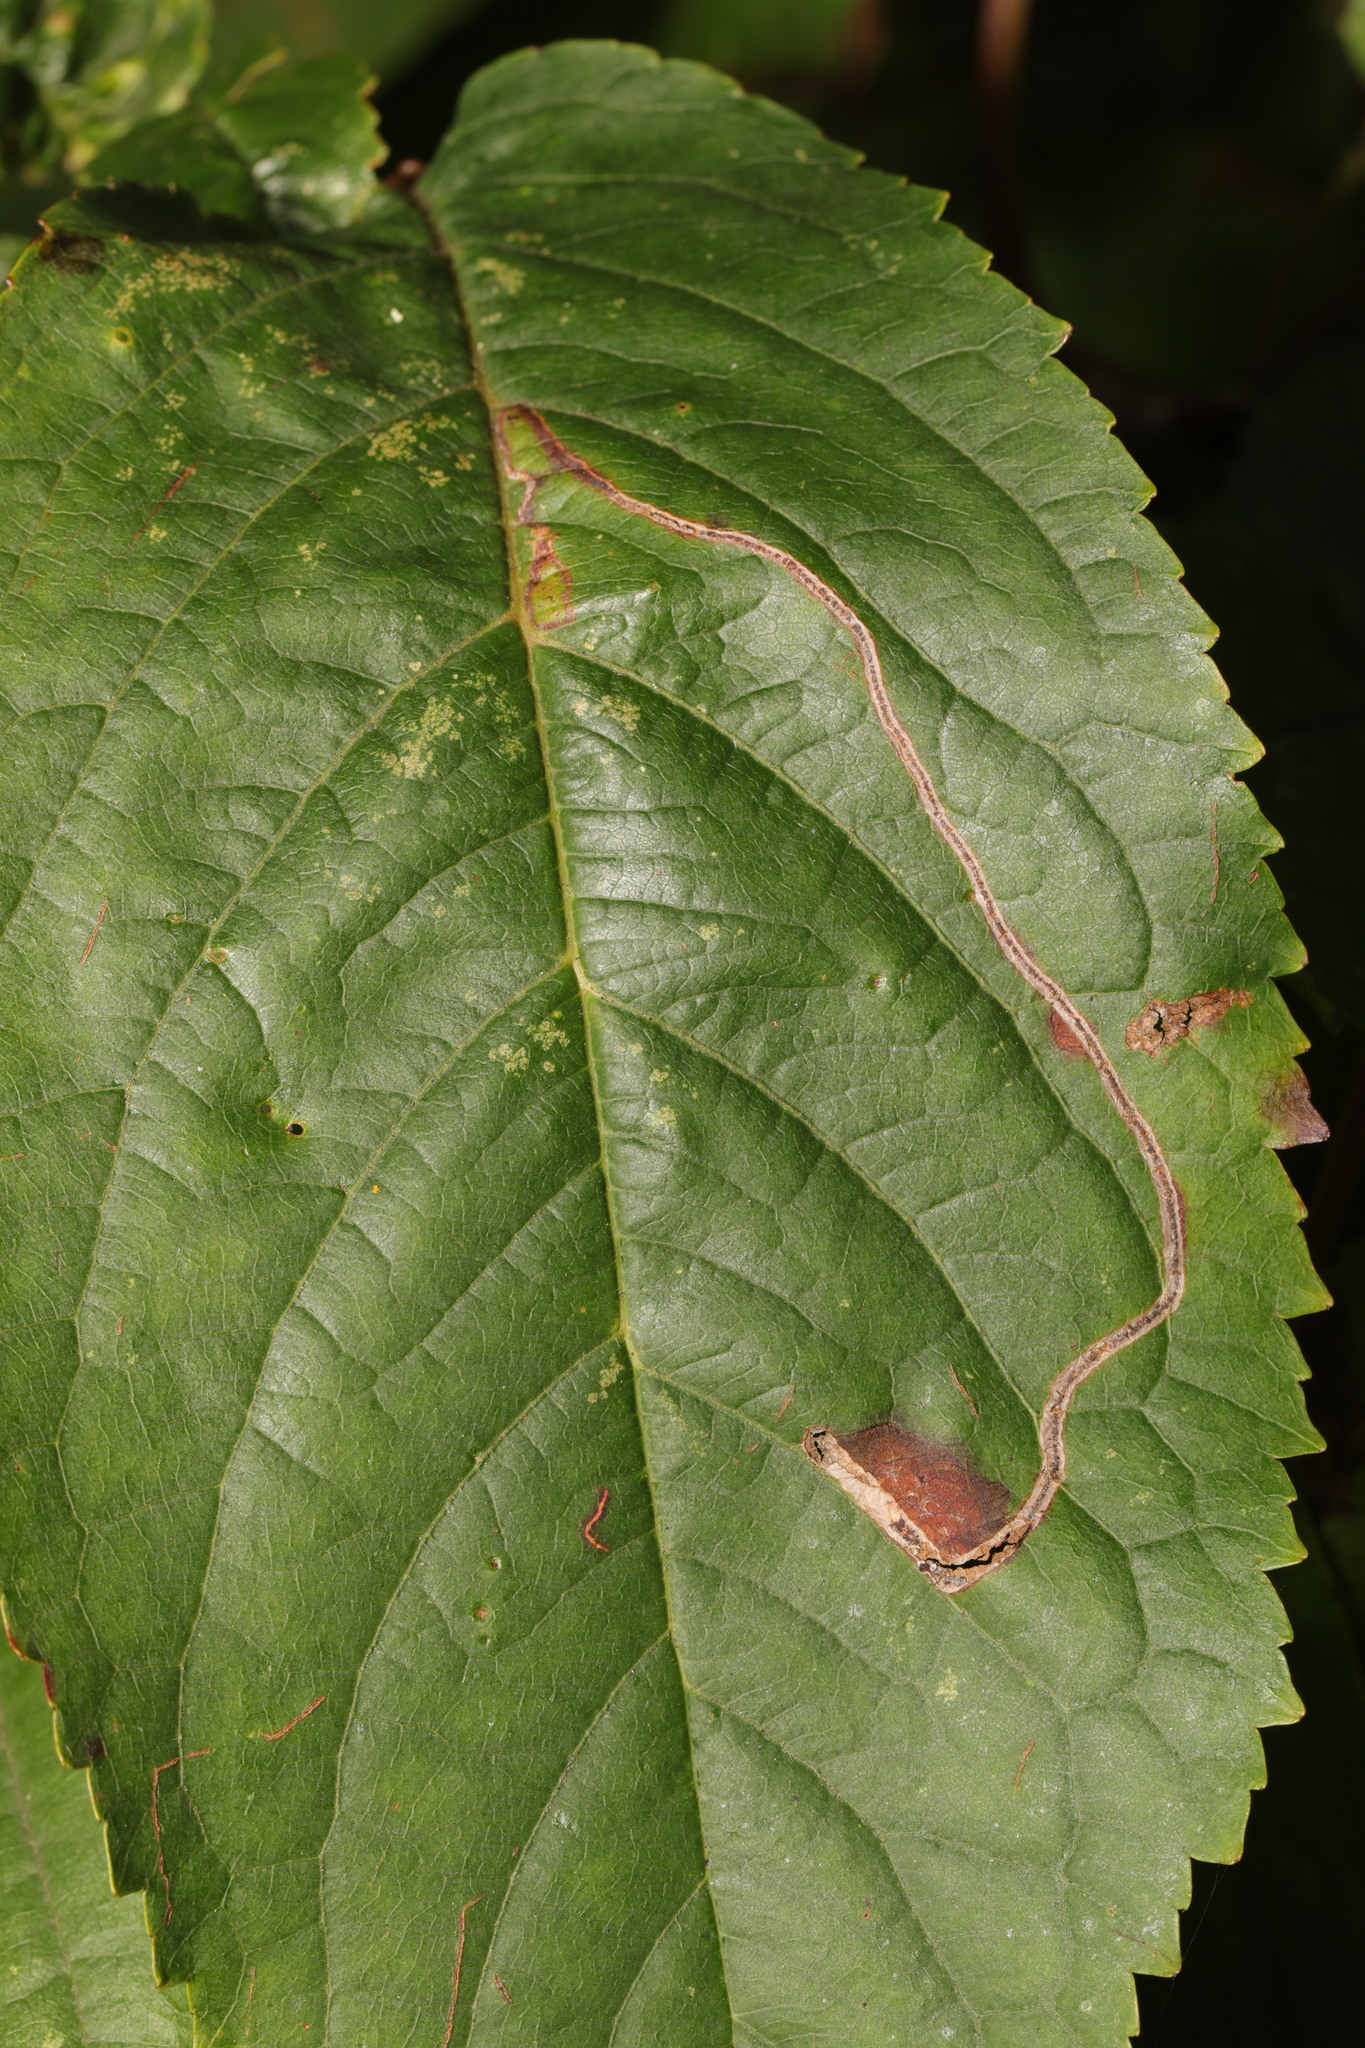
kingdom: Animalia
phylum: Arthropoda
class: Insecta
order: Lepidoptera
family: Lyonetiidae
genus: Lyonetia
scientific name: Lyonetia clerkella
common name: Apple leaf miner
